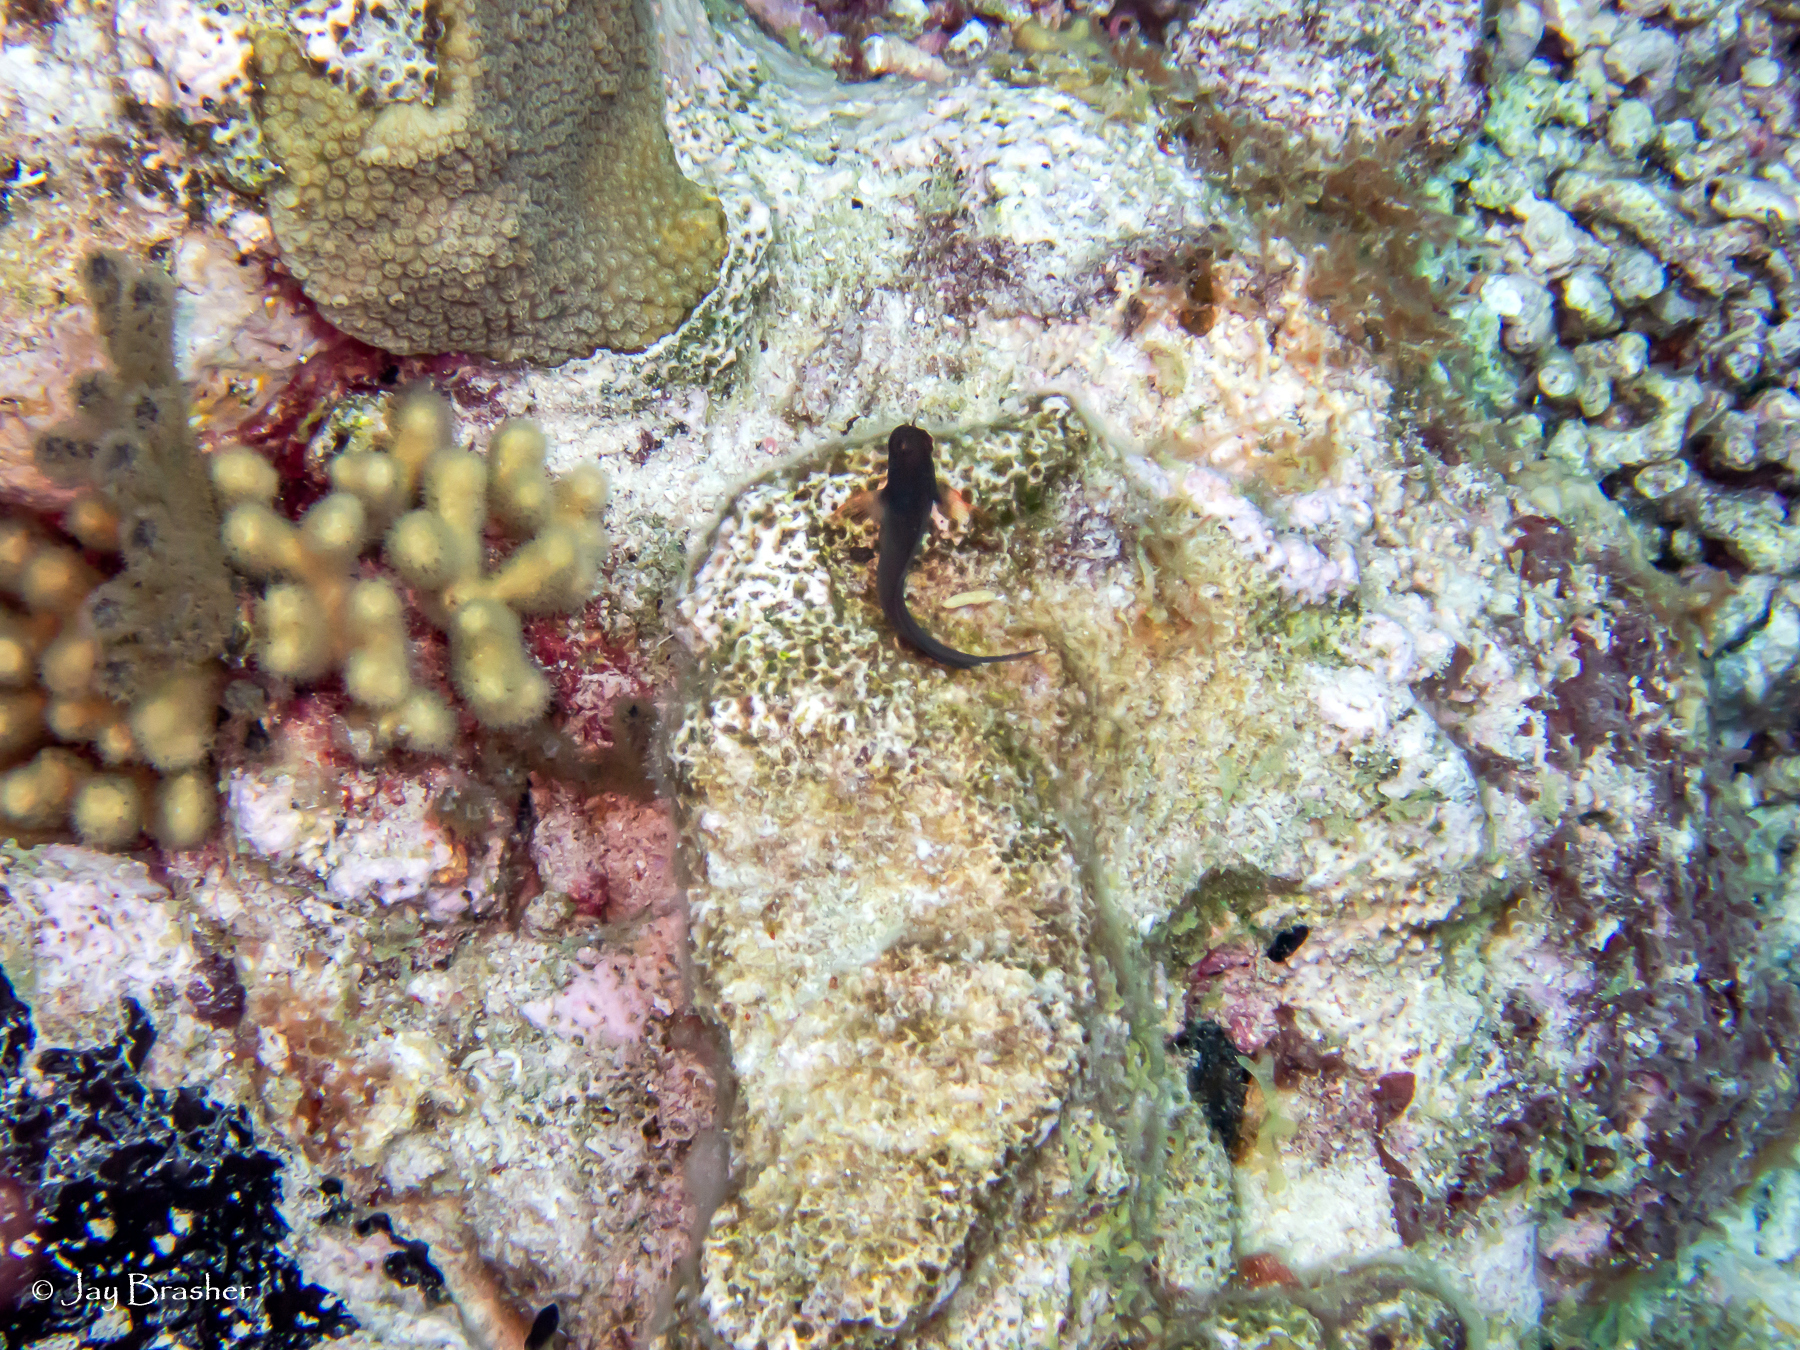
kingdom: Animalia
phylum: Chordata
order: Perciformes
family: Blenniidae
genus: Ophioblennius
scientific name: Ophioblennius macclurei
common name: Redlip blenny
